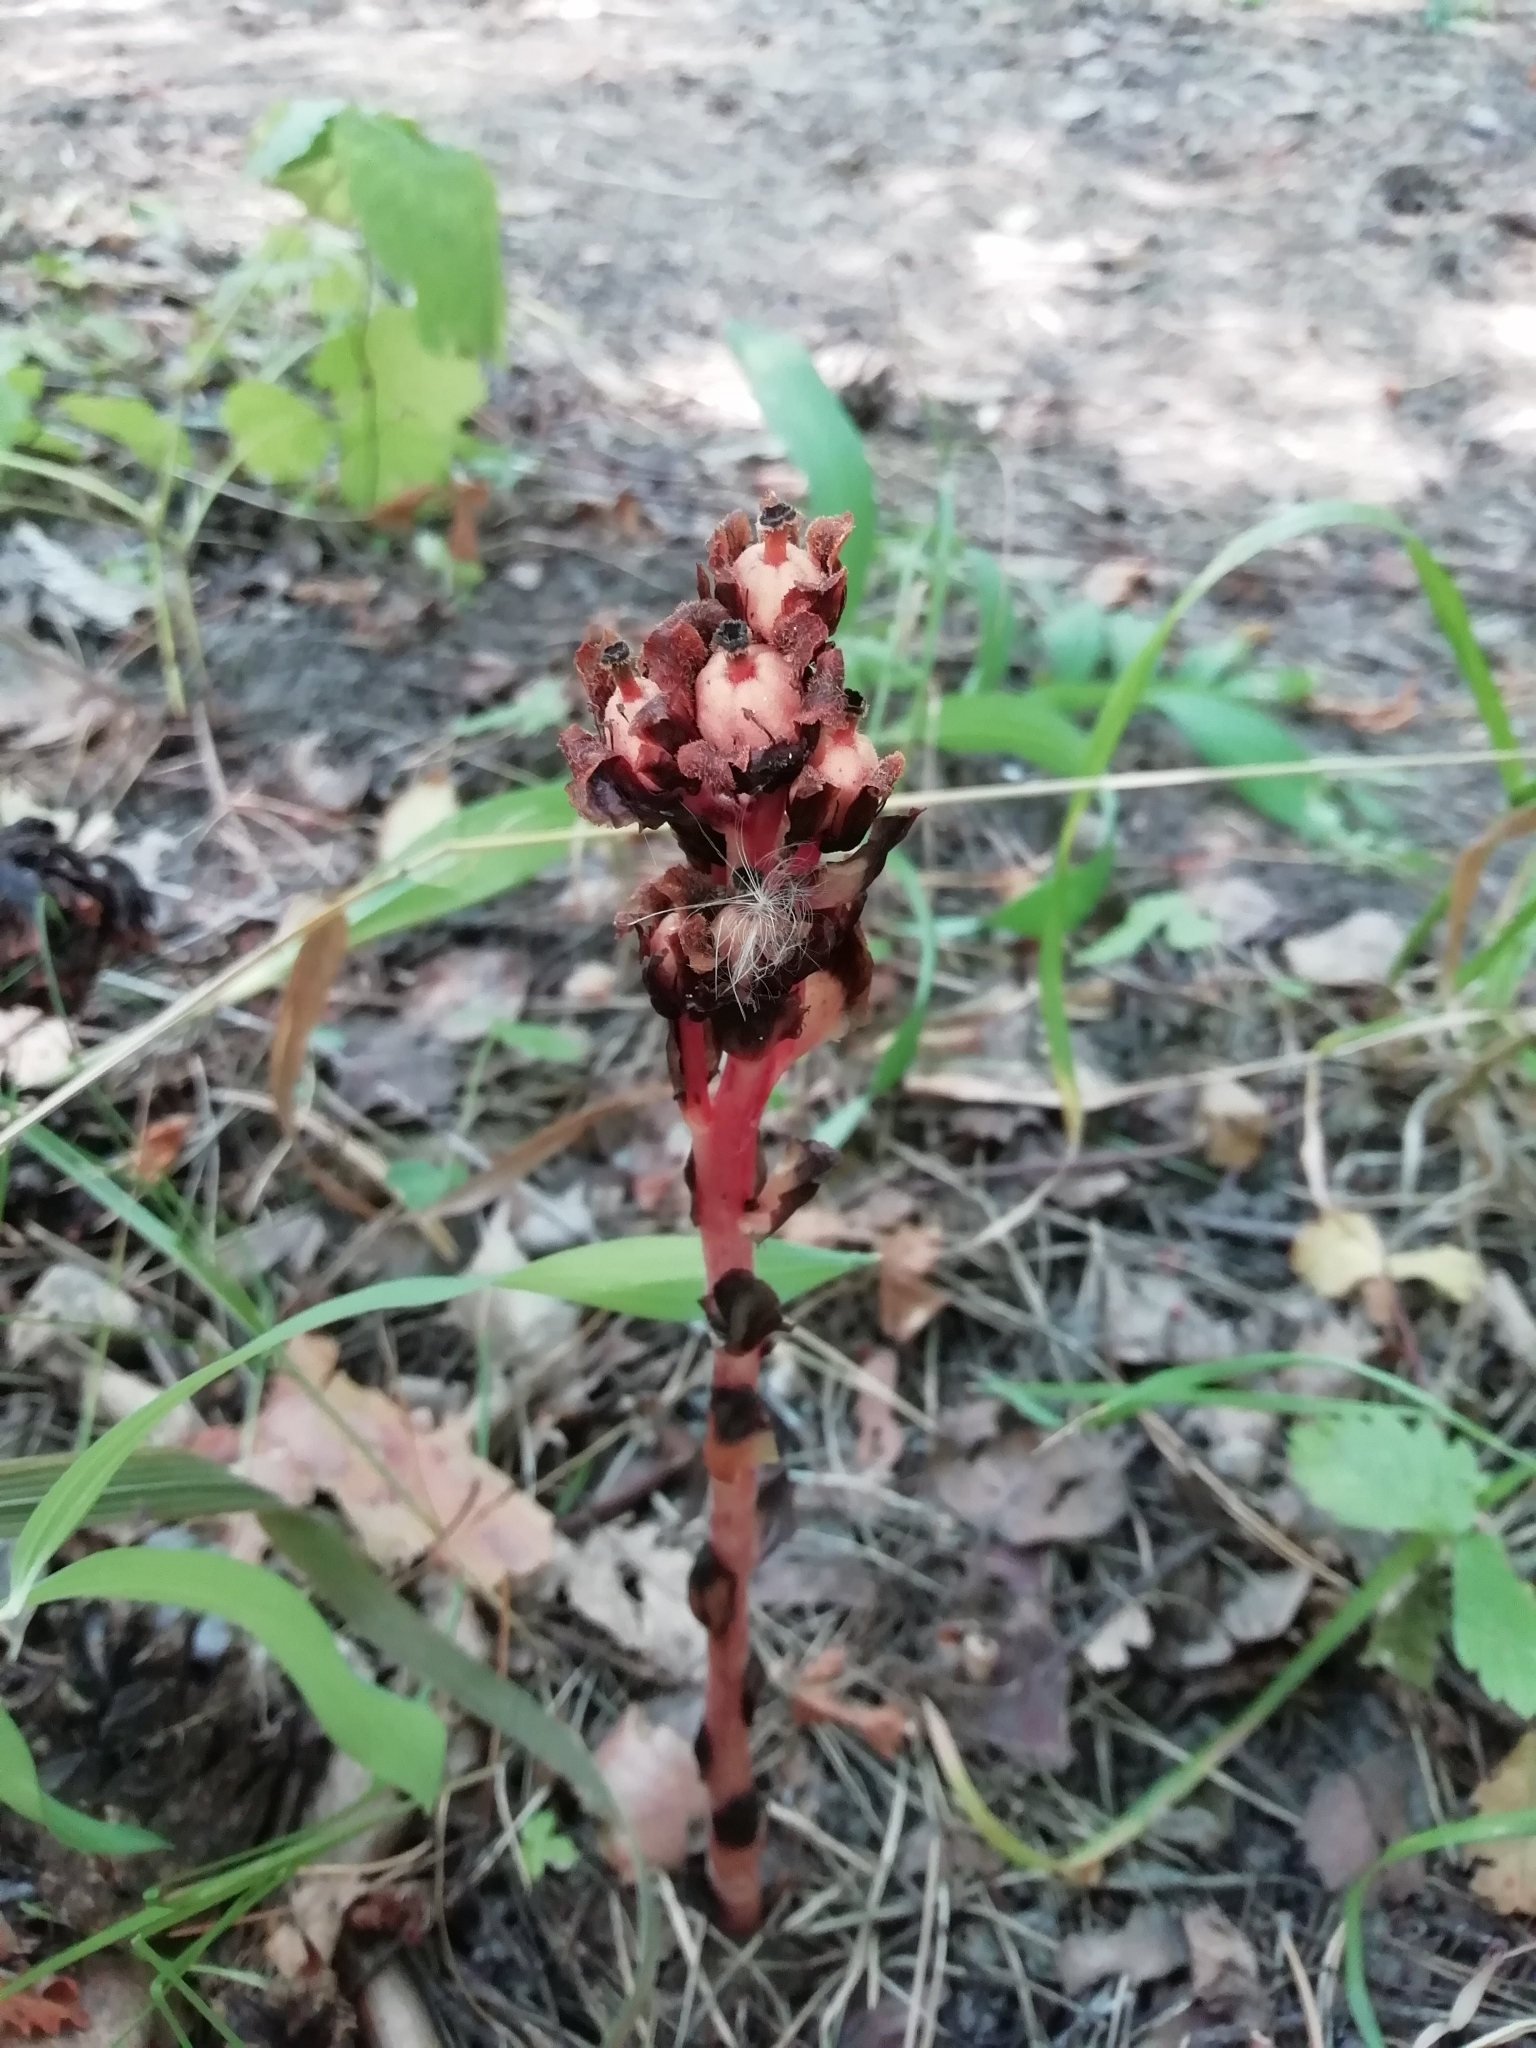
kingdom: Plantae
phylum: Tracheophyta
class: Magnoliopsida
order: Ericales
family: Ericaceae
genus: Hypopitys
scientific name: Hypopitys monotropa
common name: Yellow bird's-nest
